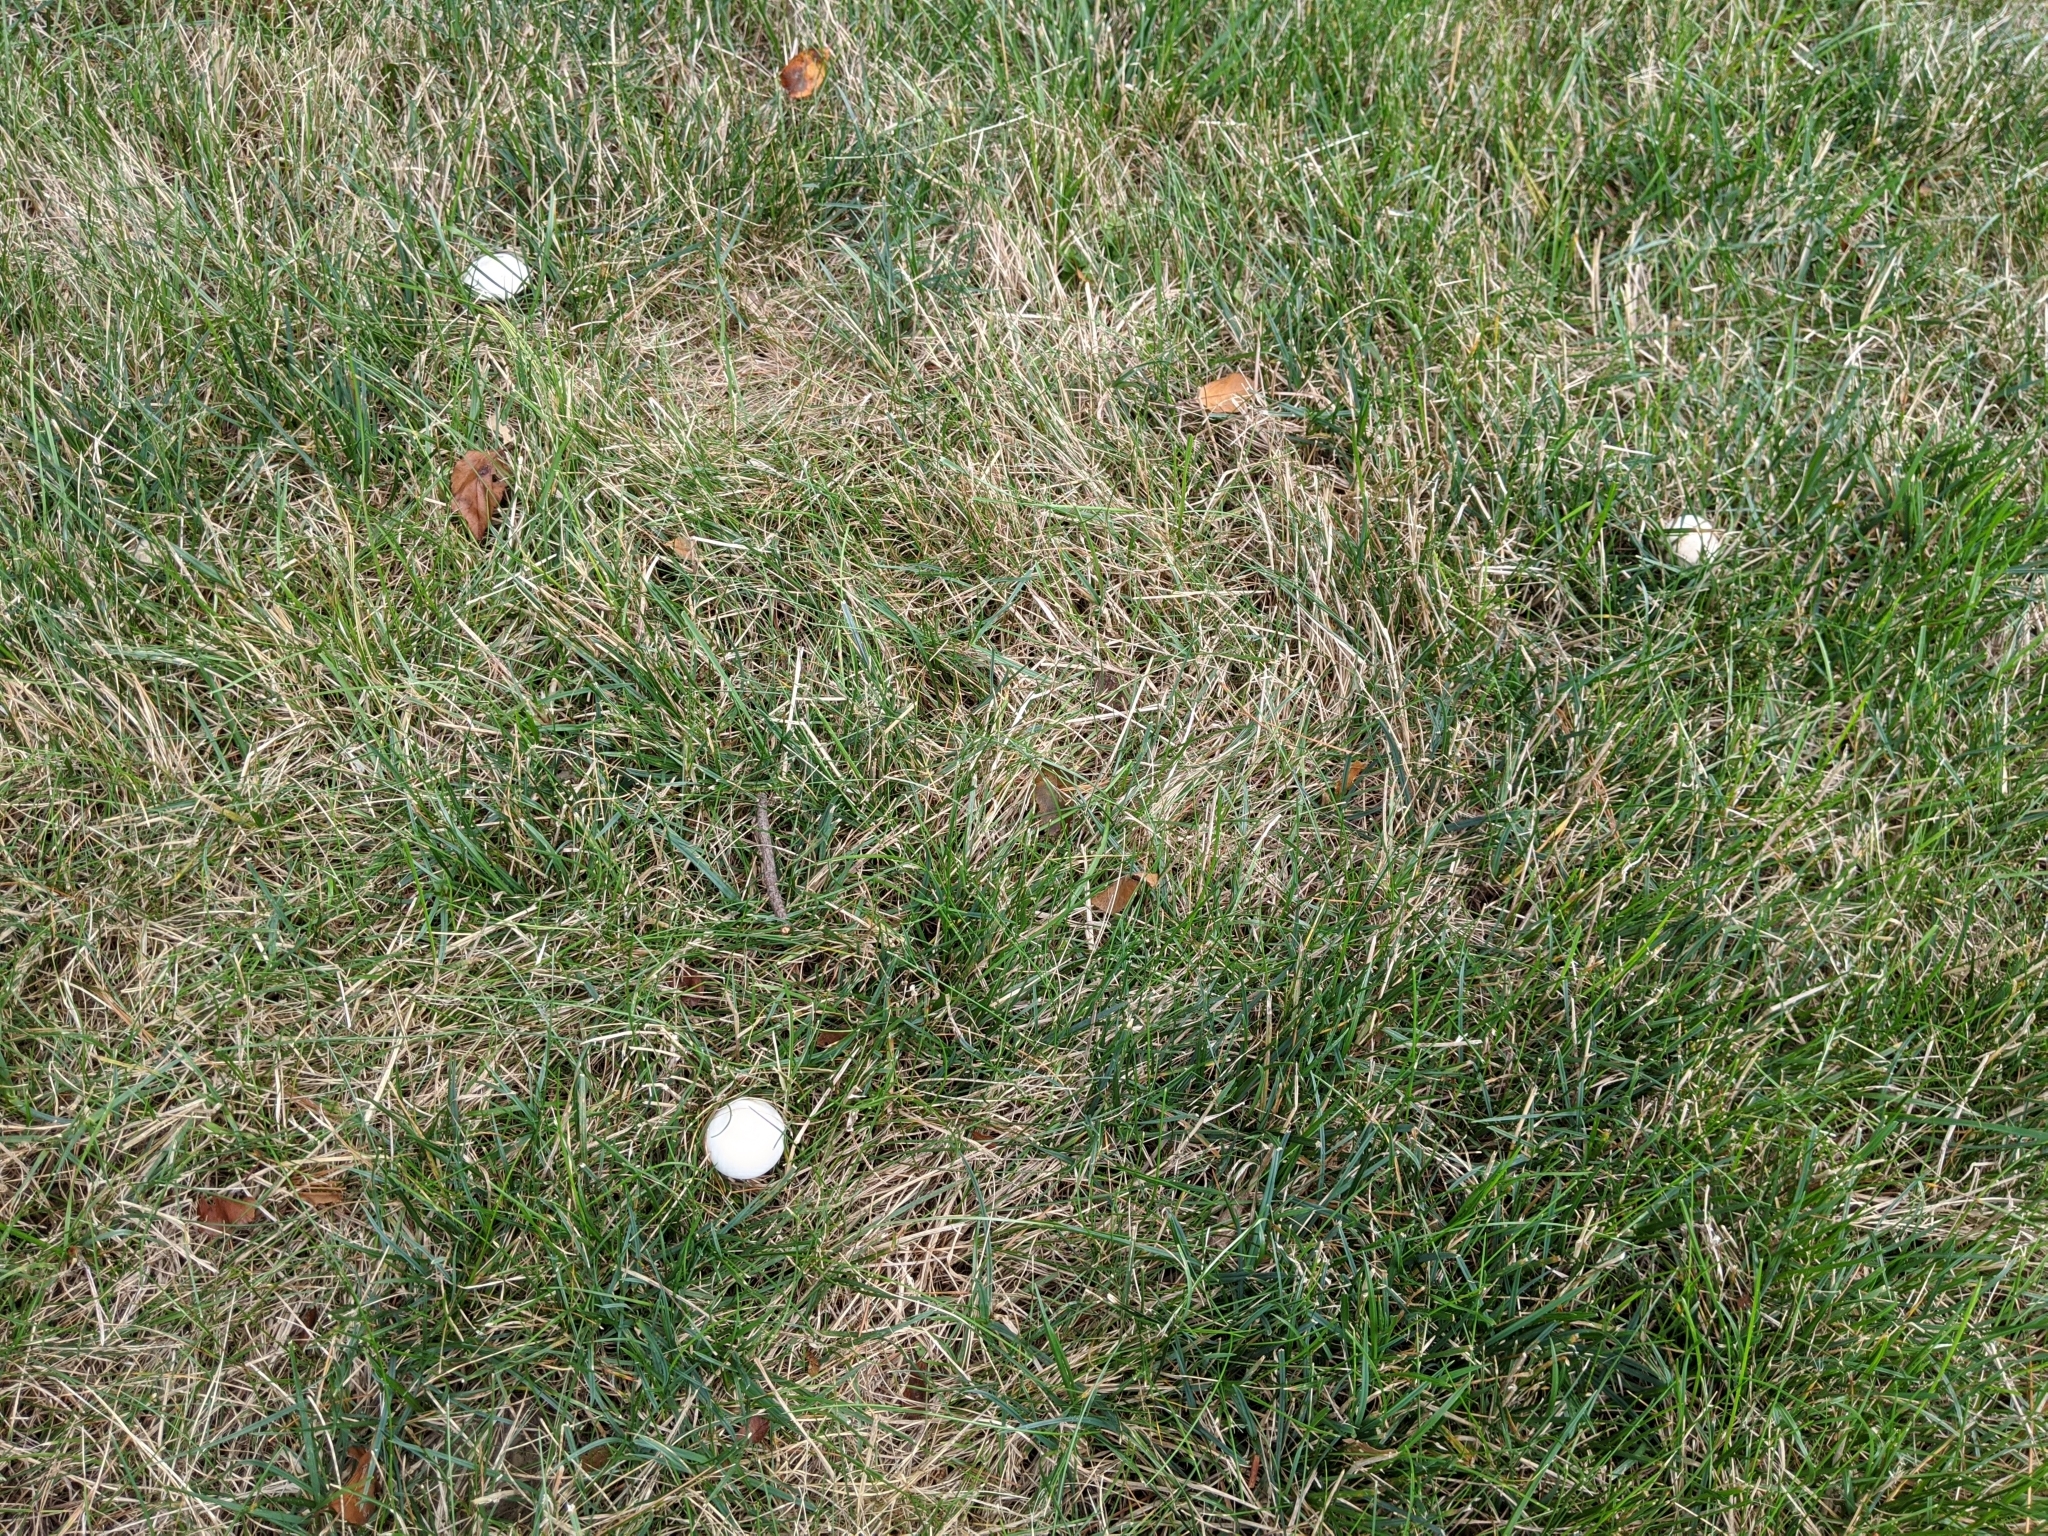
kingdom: Fungi
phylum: Basidiomycota
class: Agaricomycetes
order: Agaricales
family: Agaricaceae
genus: Leucoagaricus
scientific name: Leucoagaricus leucothites
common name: White dapperling
